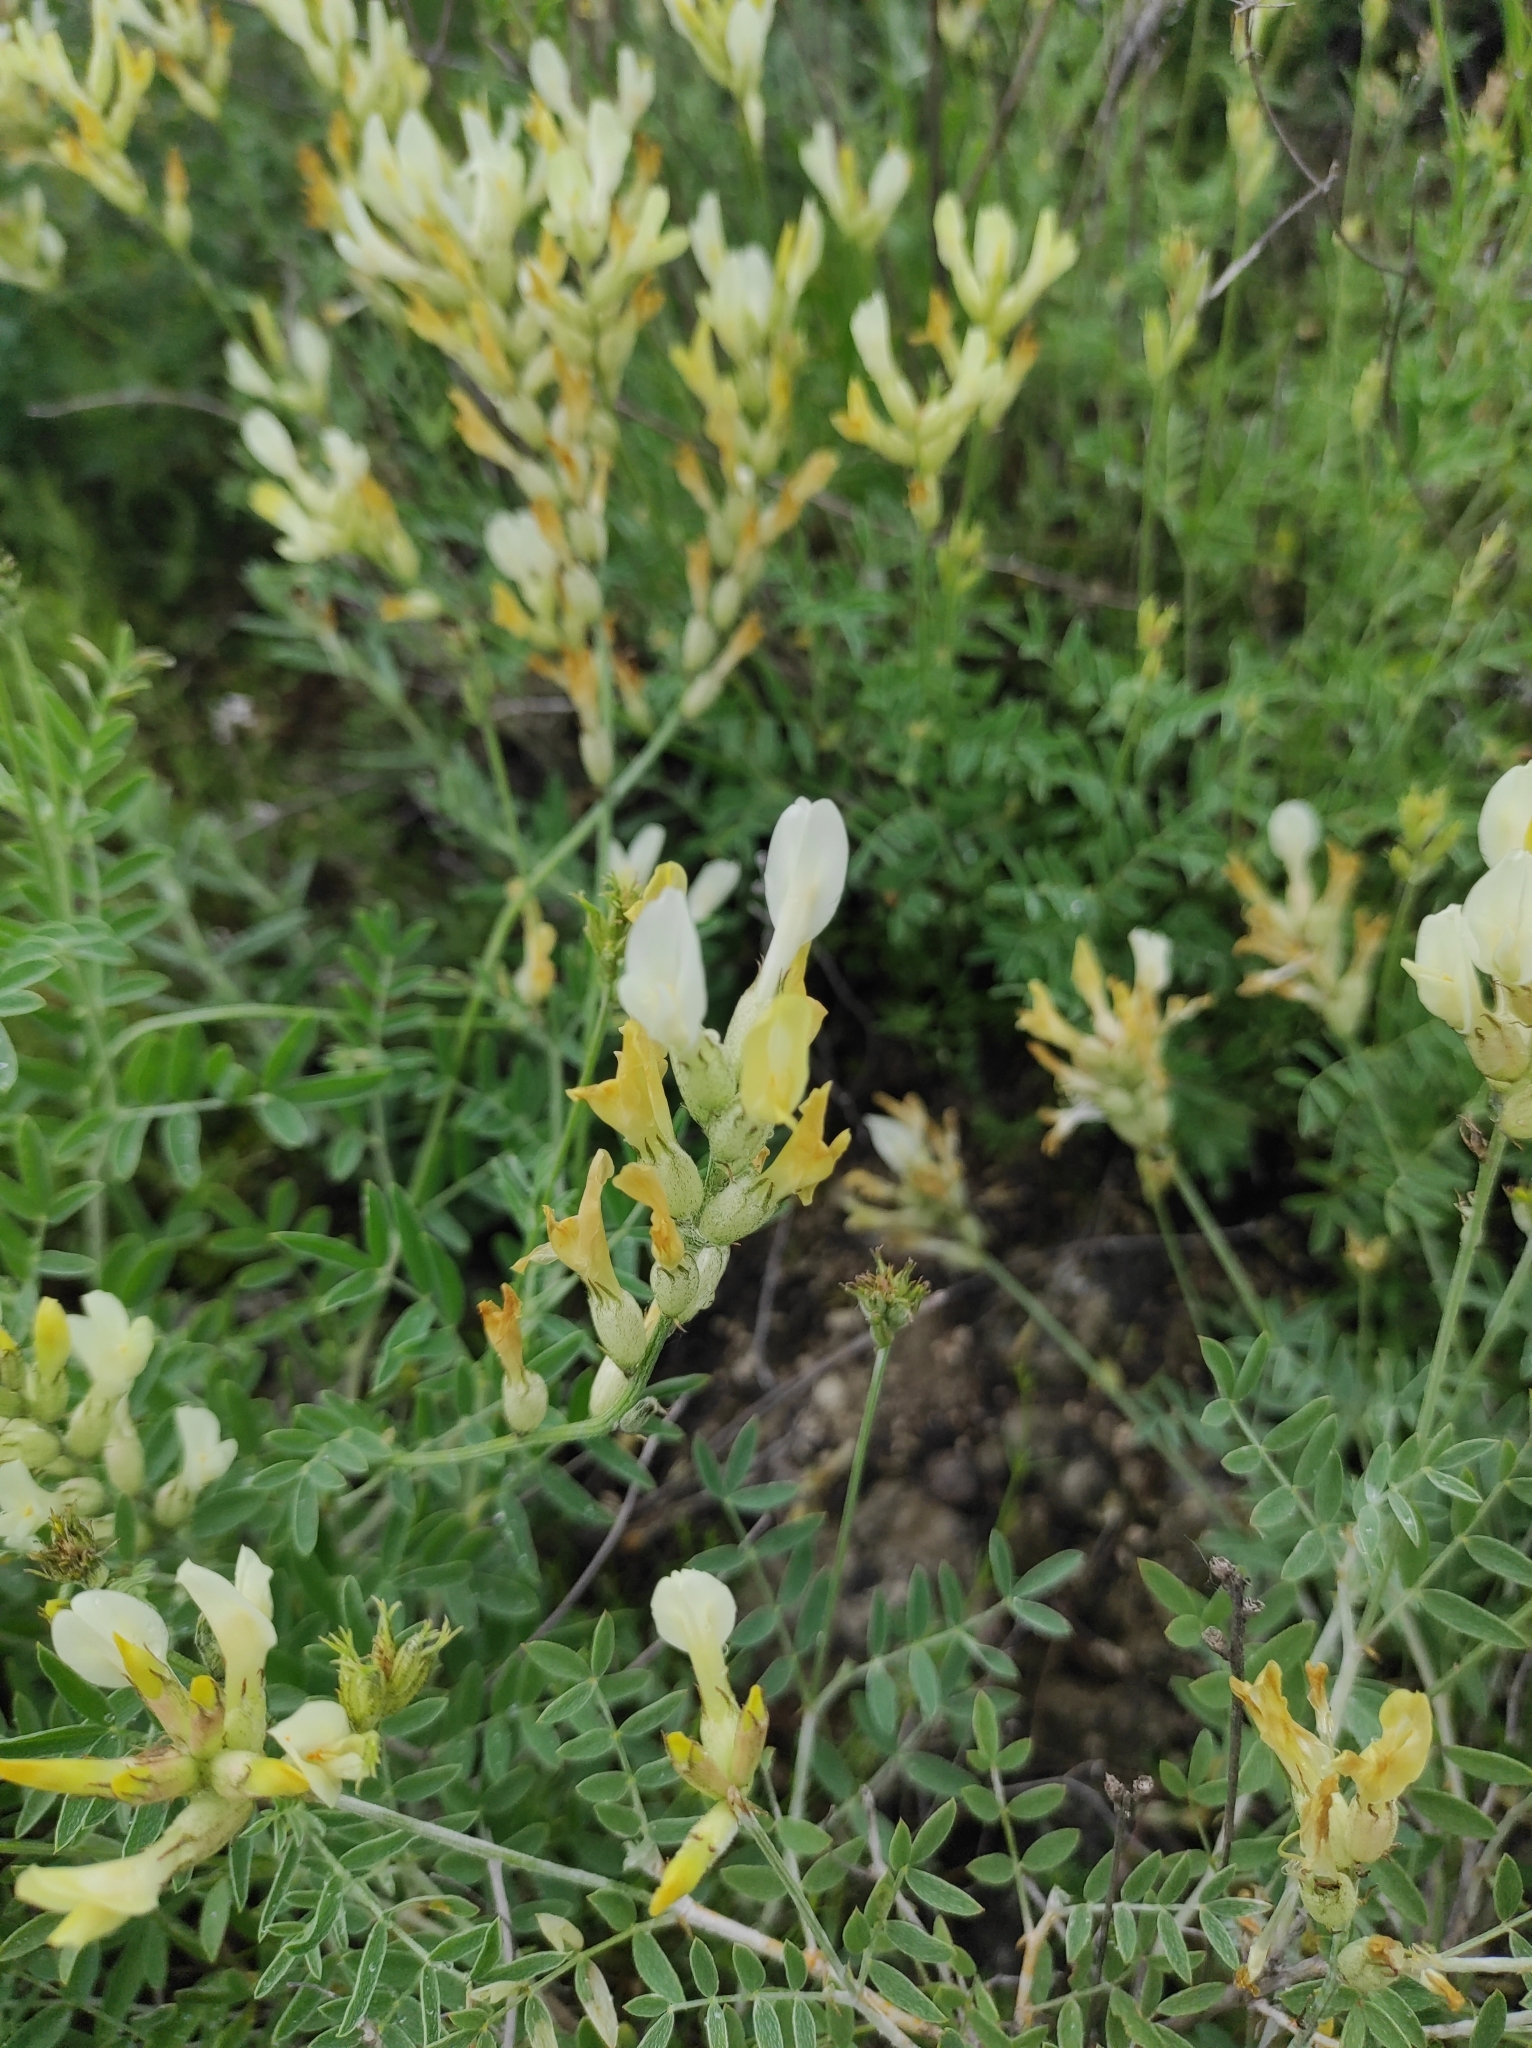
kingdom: Plantae
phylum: Tracheophyta
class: Magnoliopsida
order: Fabales
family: Fabaceae
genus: Astragalus
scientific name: Astragalus albicaulis
